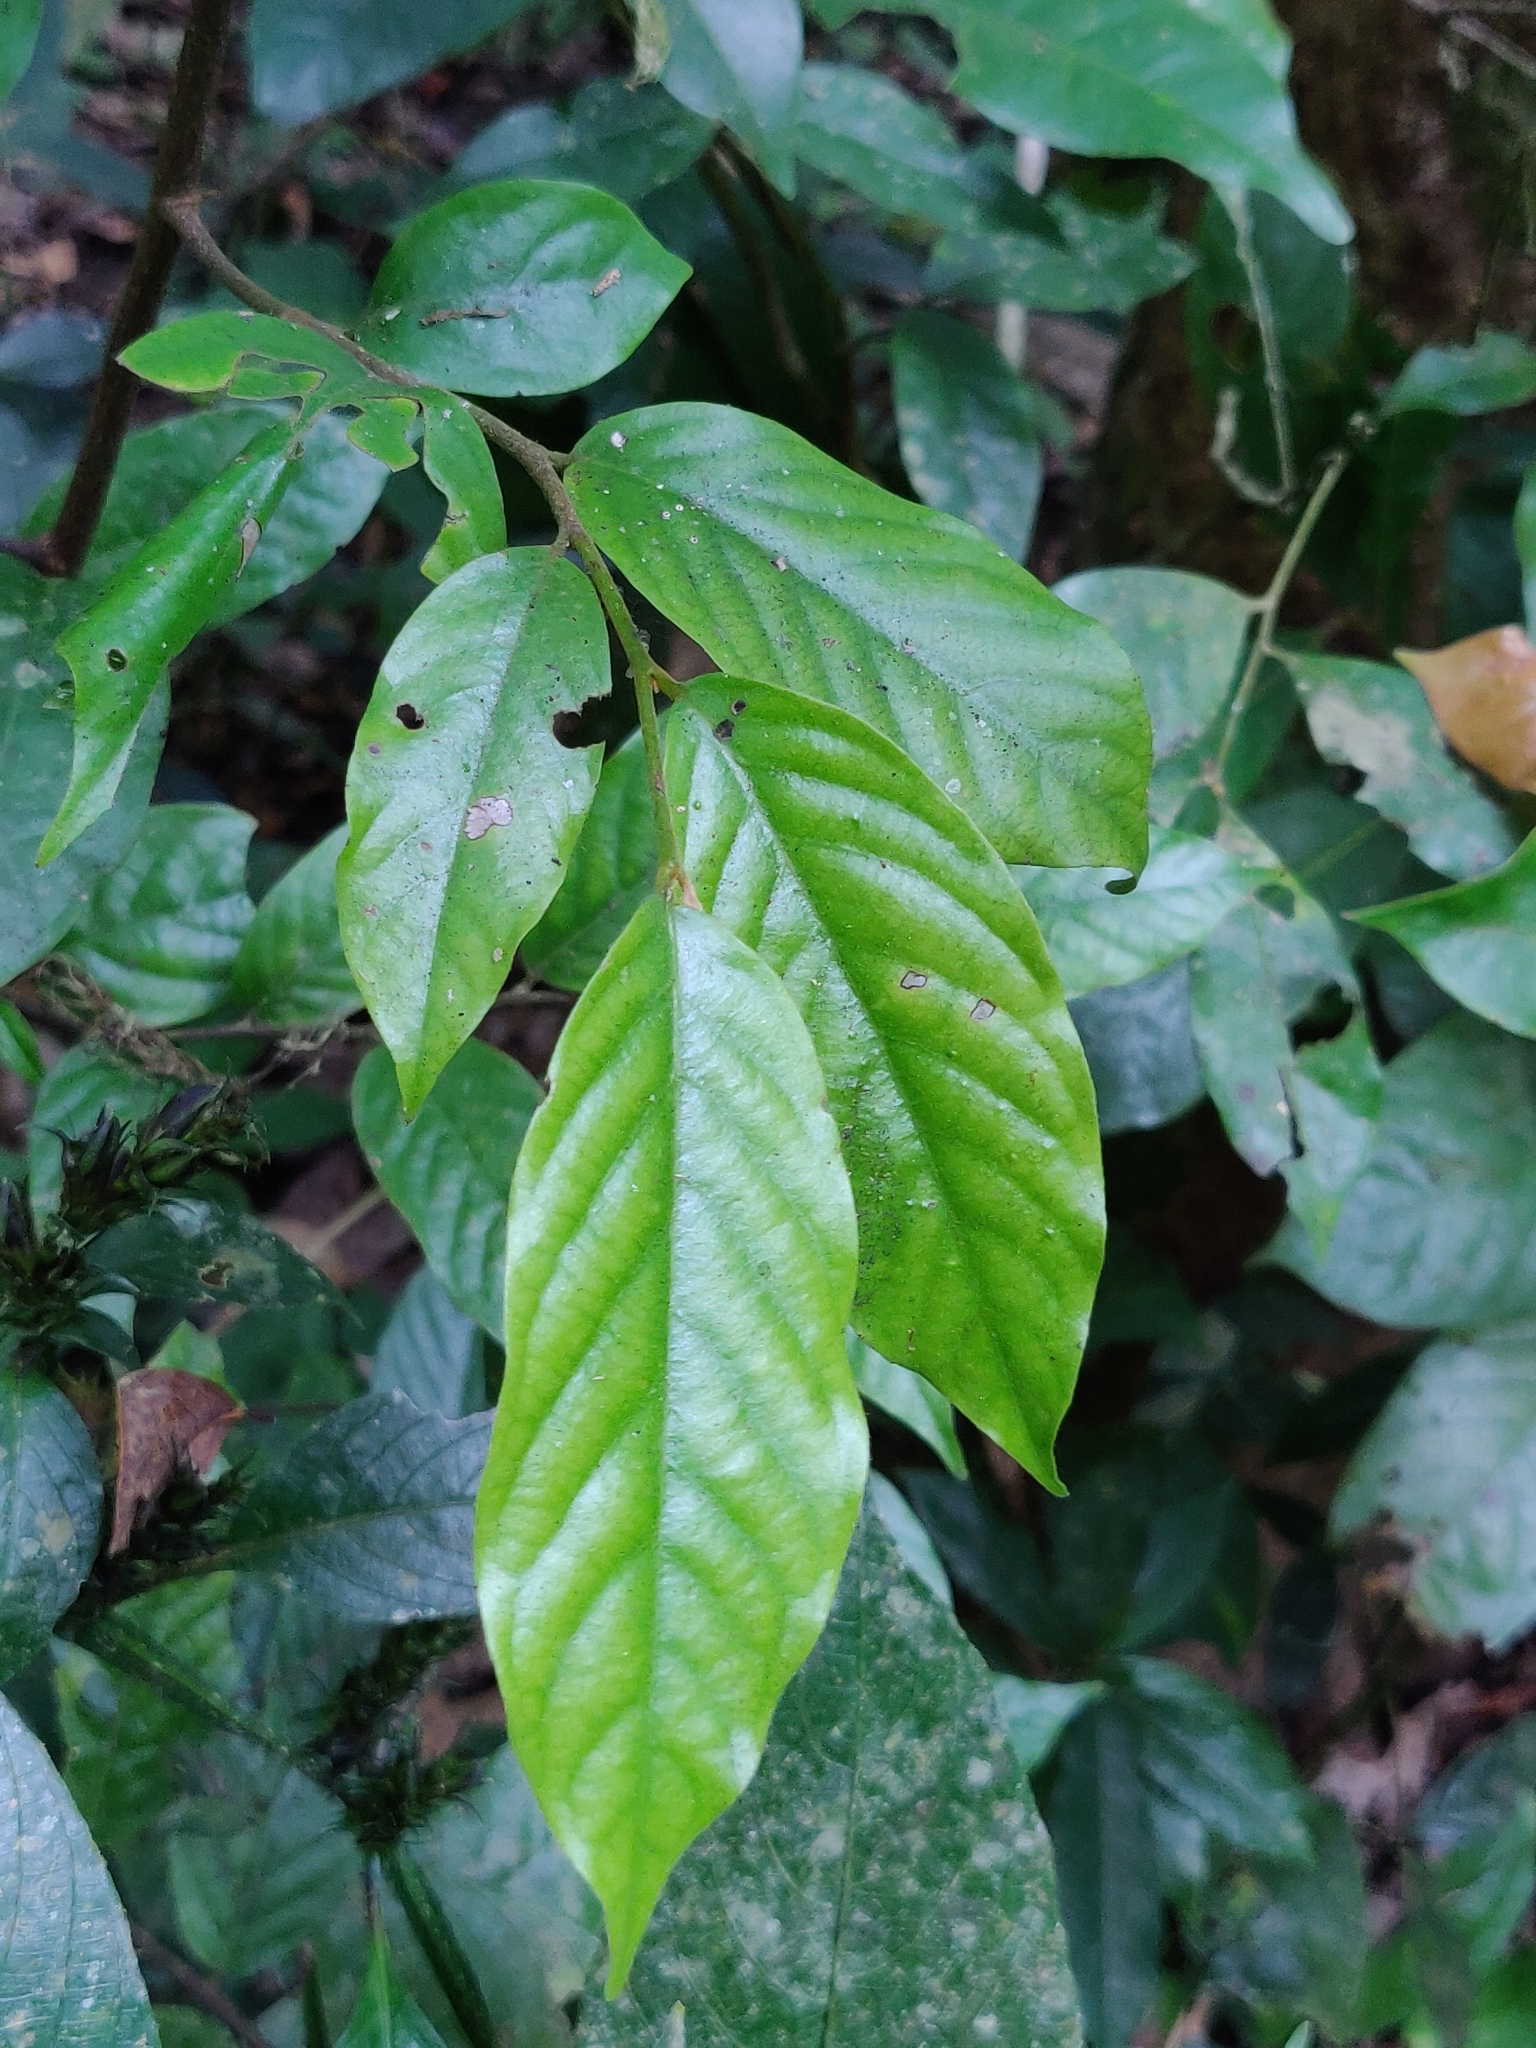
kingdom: Plantae
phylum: Tracheophyta
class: Magnoliopsida
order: Magnoliales
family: Annonaceae
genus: Orophea
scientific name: Orophea erythrocarpa
